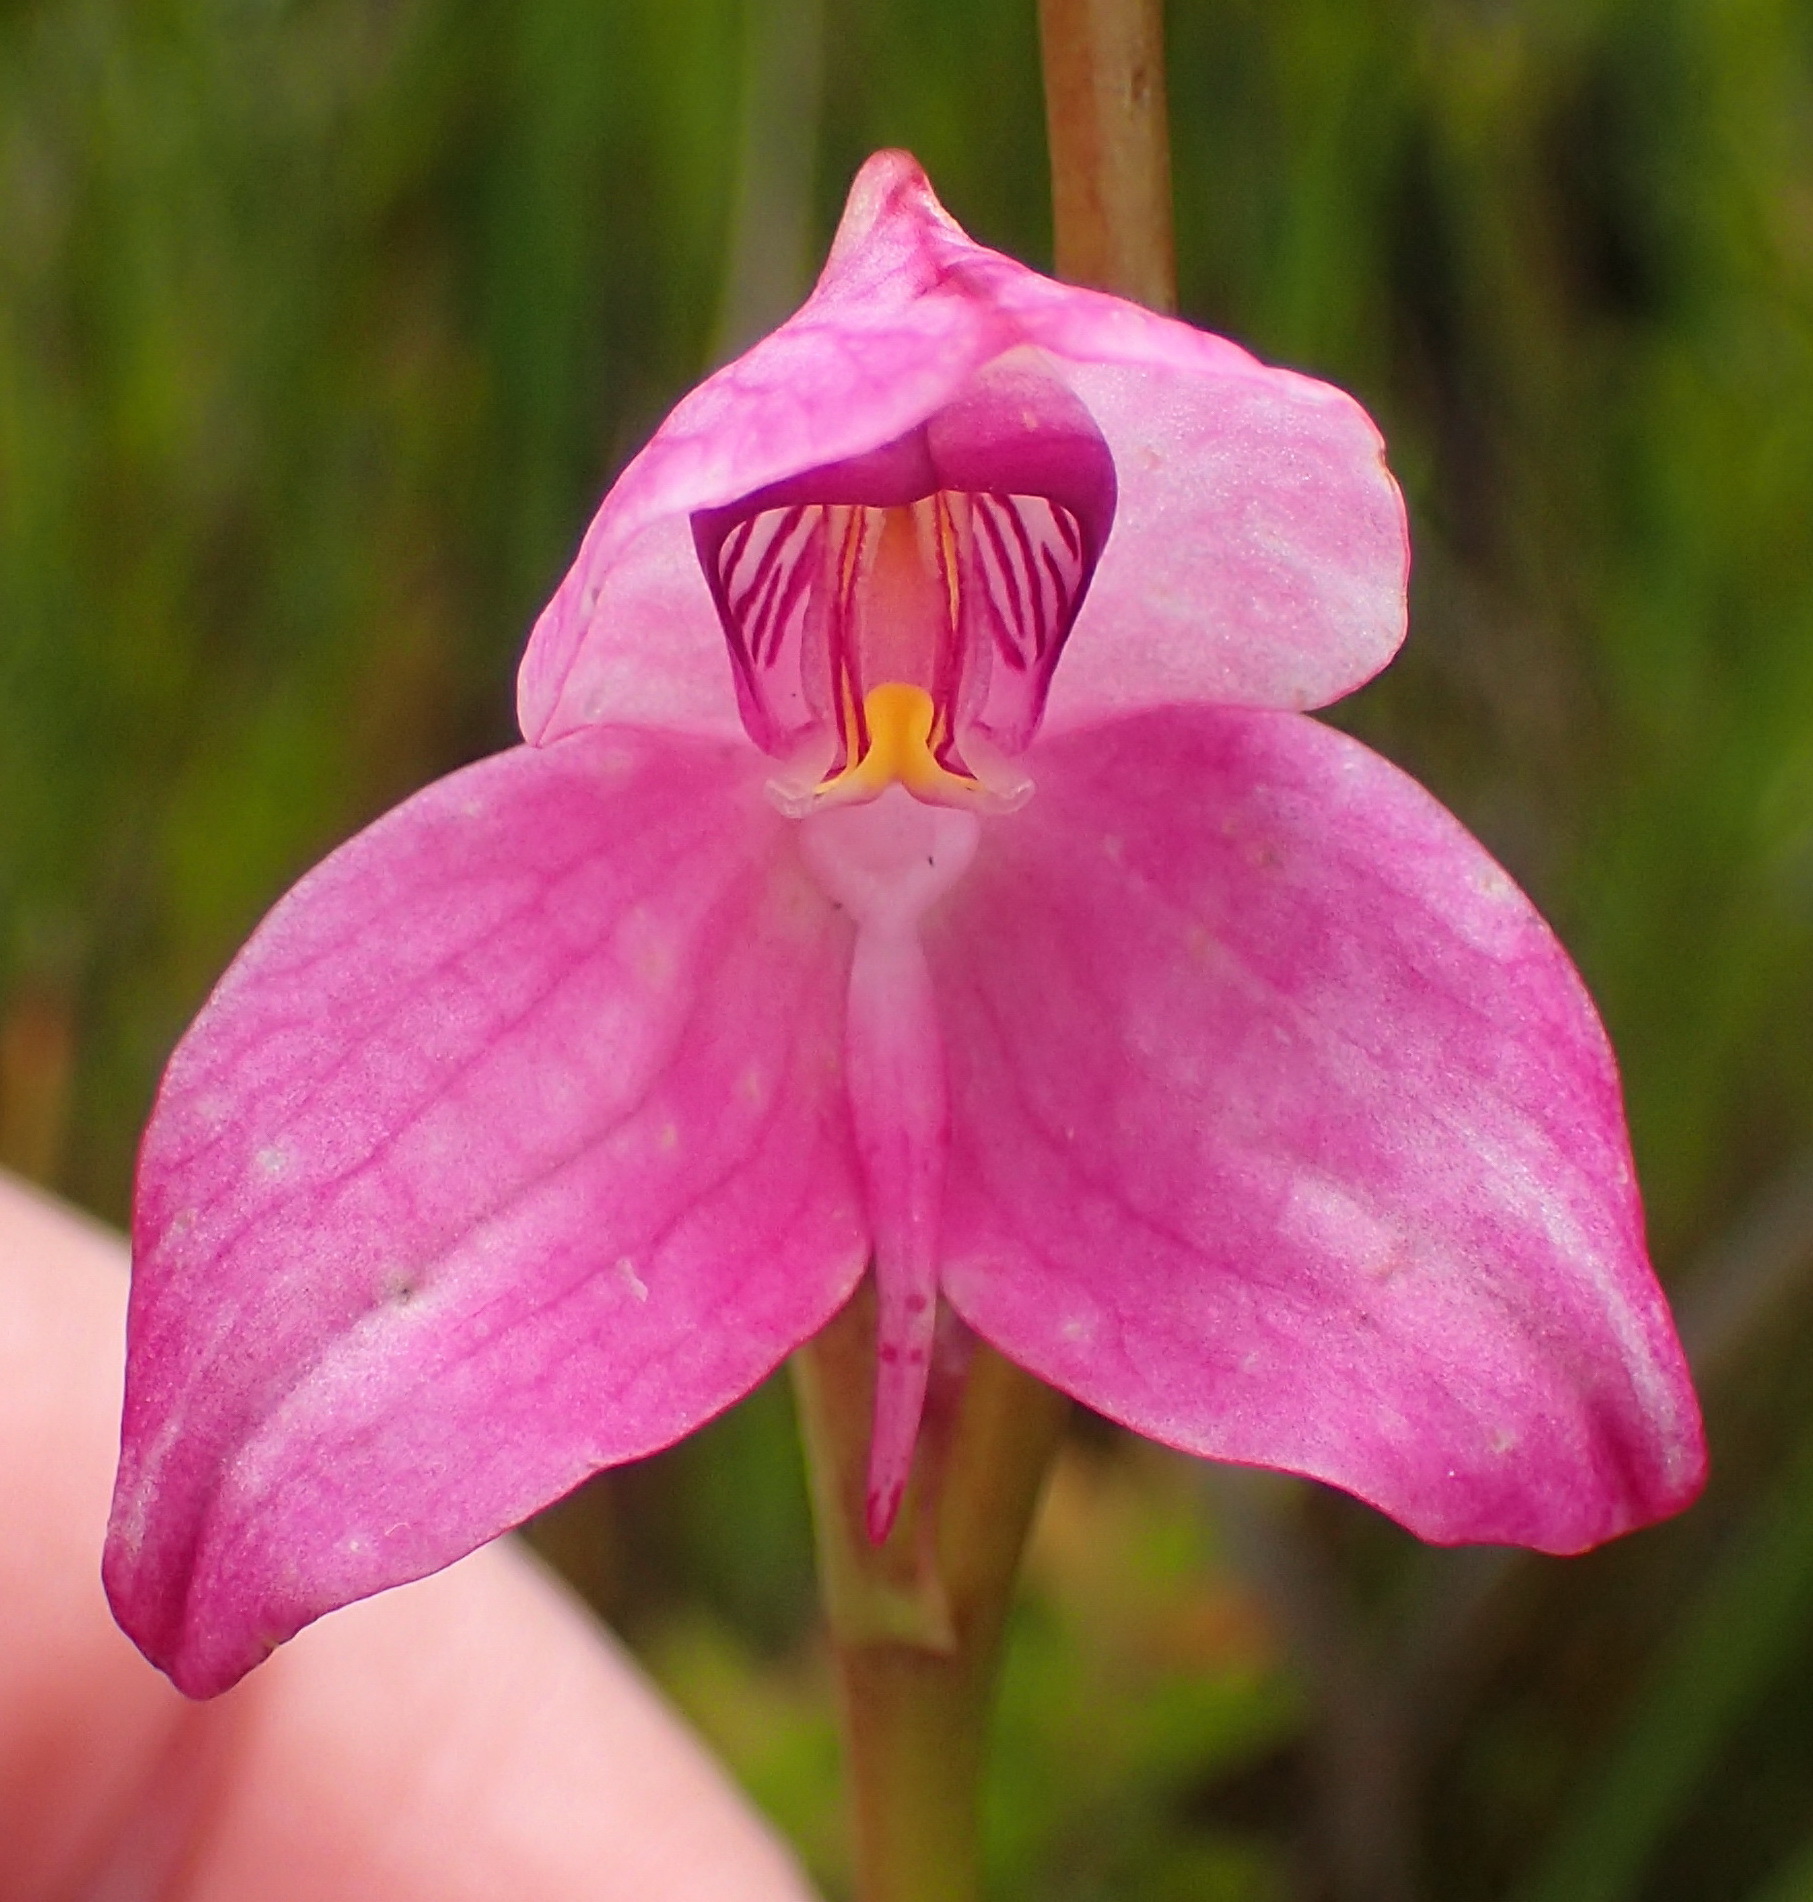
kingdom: Plantae
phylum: Tracheophyta
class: Liliopsida
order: Asparagales
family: Orchidaceae
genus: Disa
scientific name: Disa racemosa
